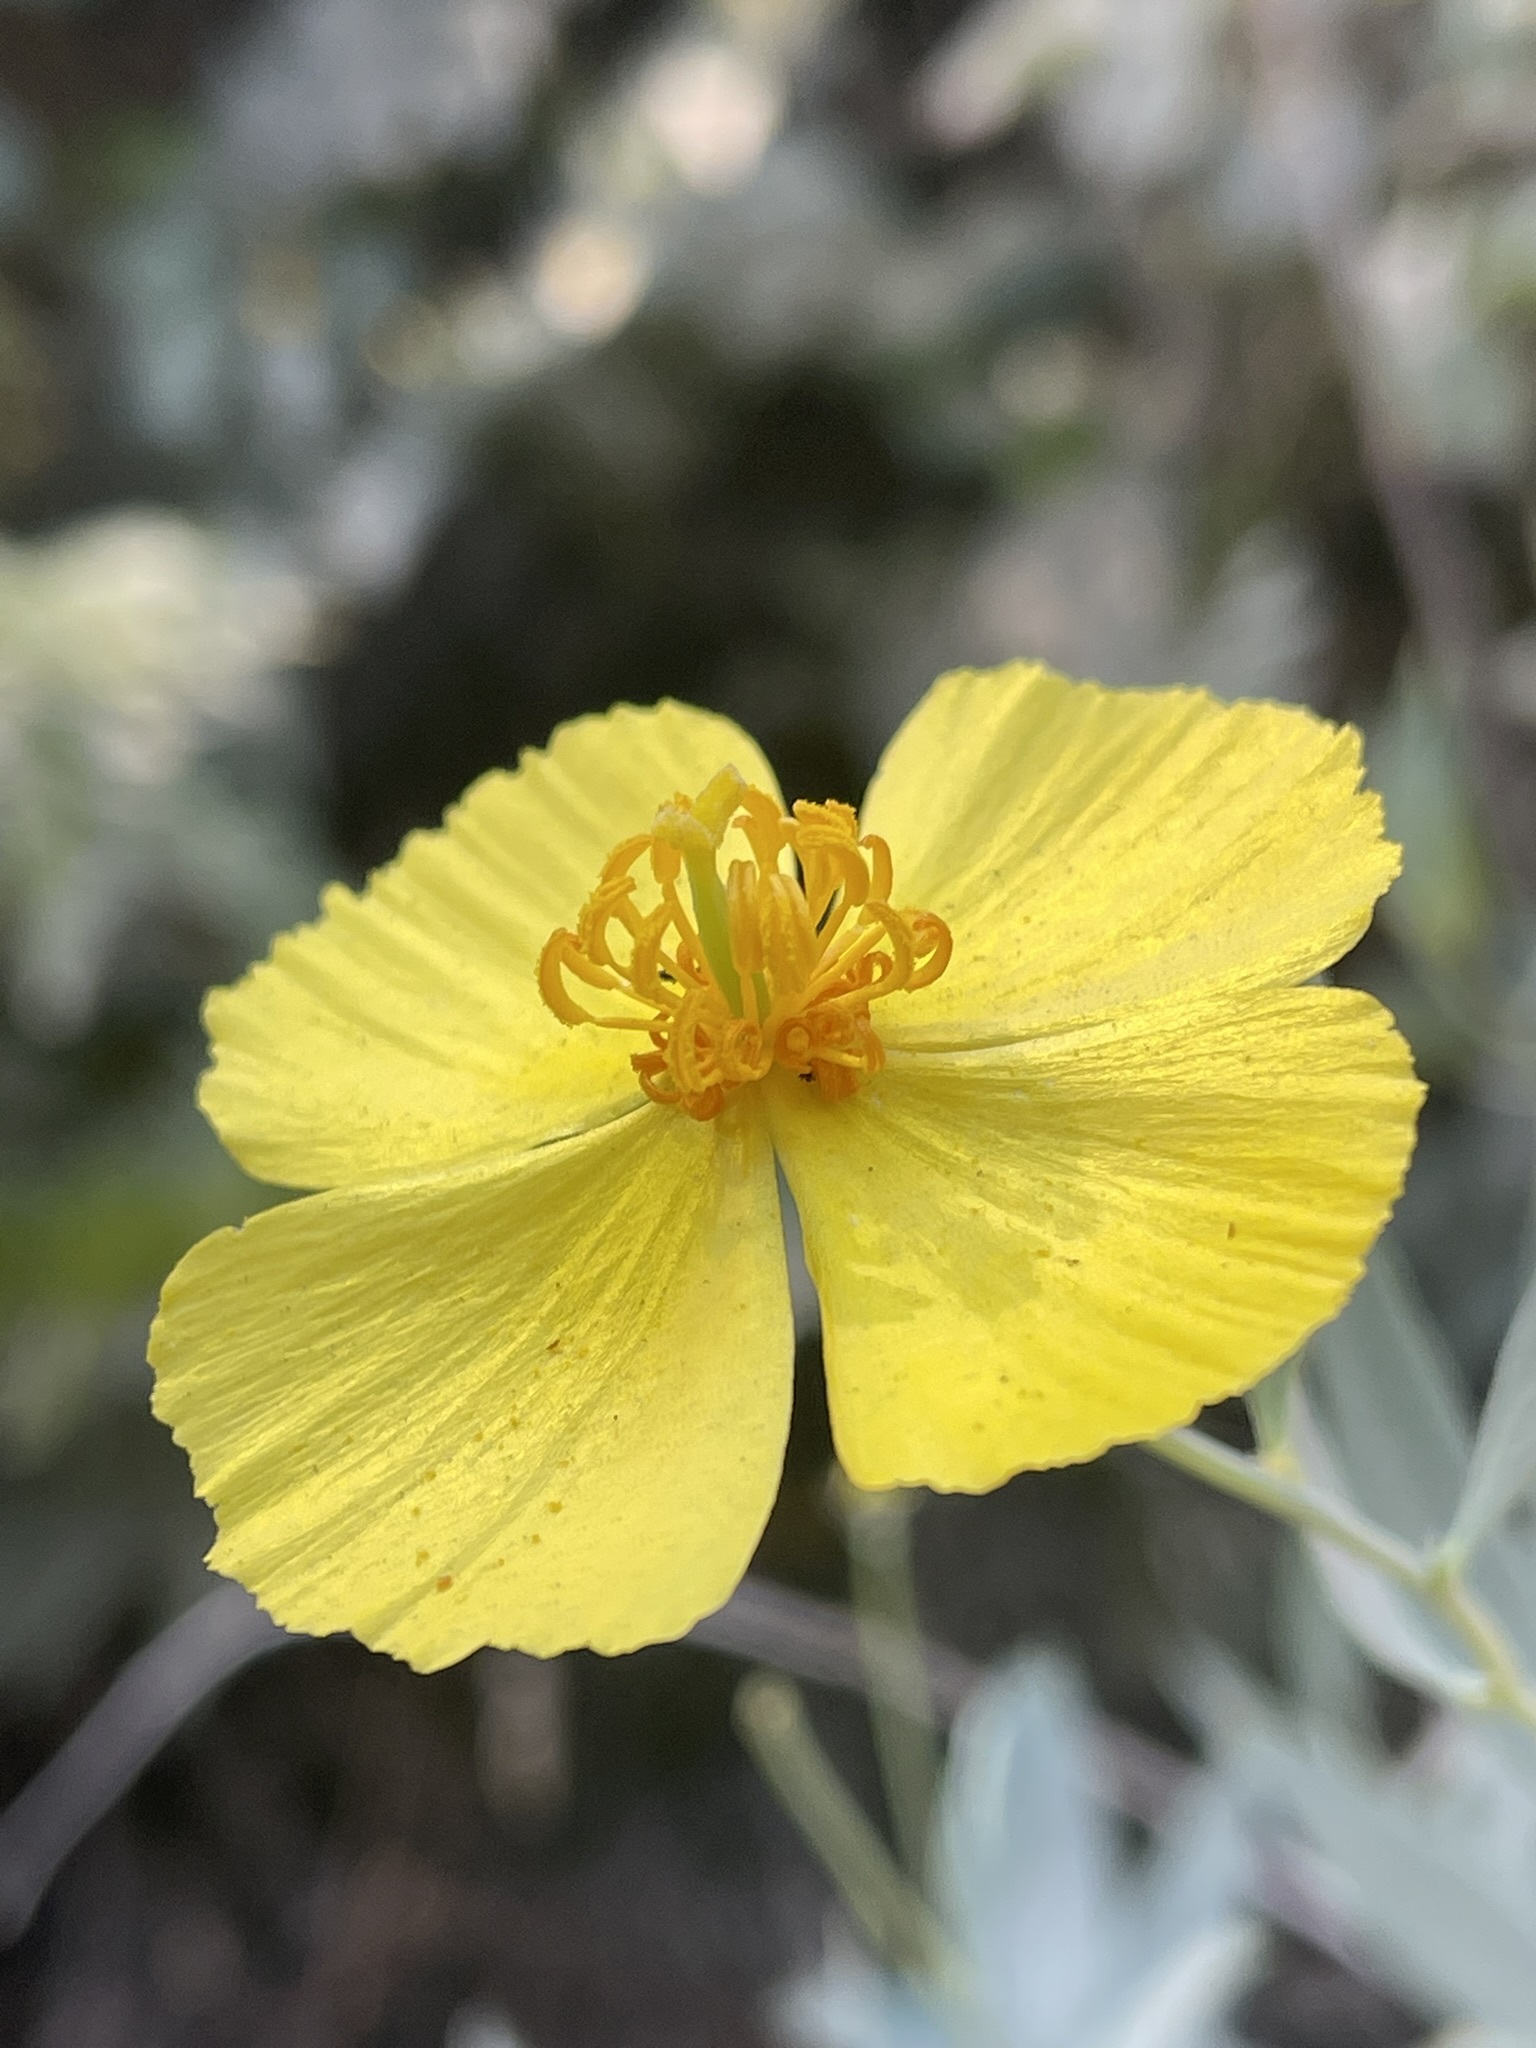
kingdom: Plantae
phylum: Tracheophyta
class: Magnoliopsida
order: Ranunculales
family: Papaveraceae
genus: Dendromecon
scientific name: Dendromecon rigida
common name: Tree poppy
